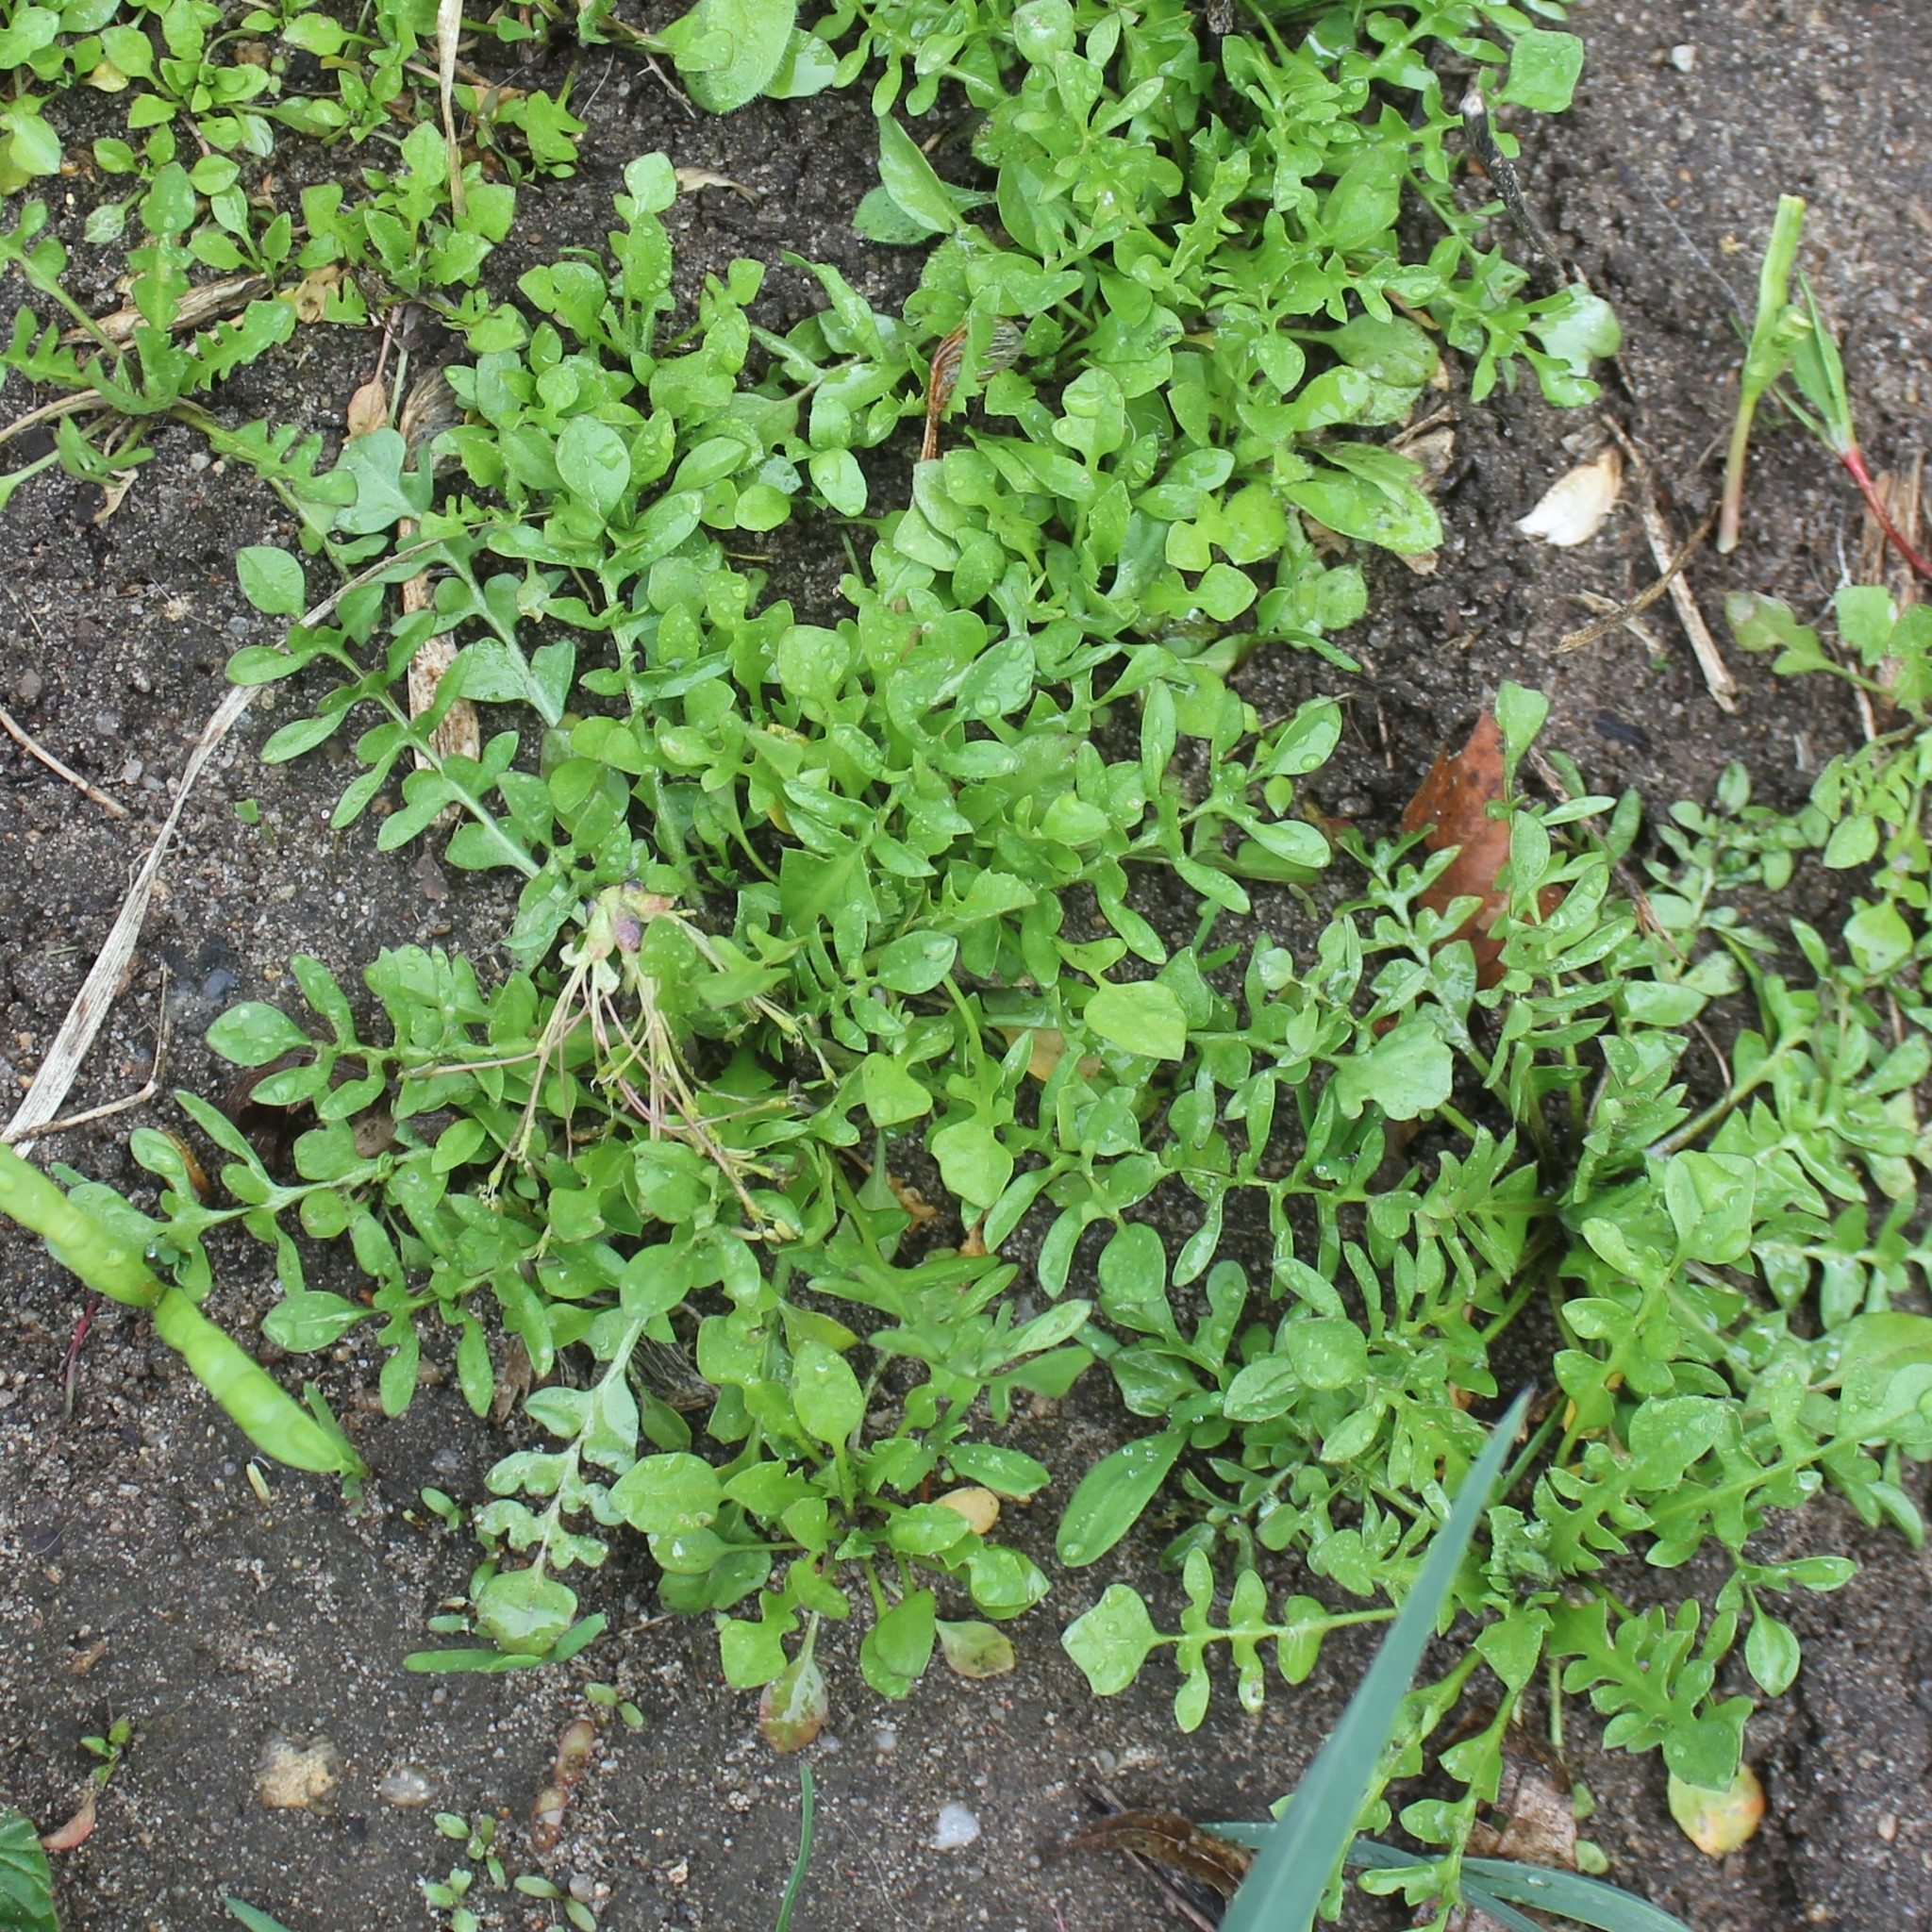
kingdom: Plantae
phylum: Tracheophyta
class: Magnoliopsida
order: Brassicales
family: Brassicaceae
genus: Capsella
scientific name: Capsella bursa-pastoris
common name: Shepherd's purse
